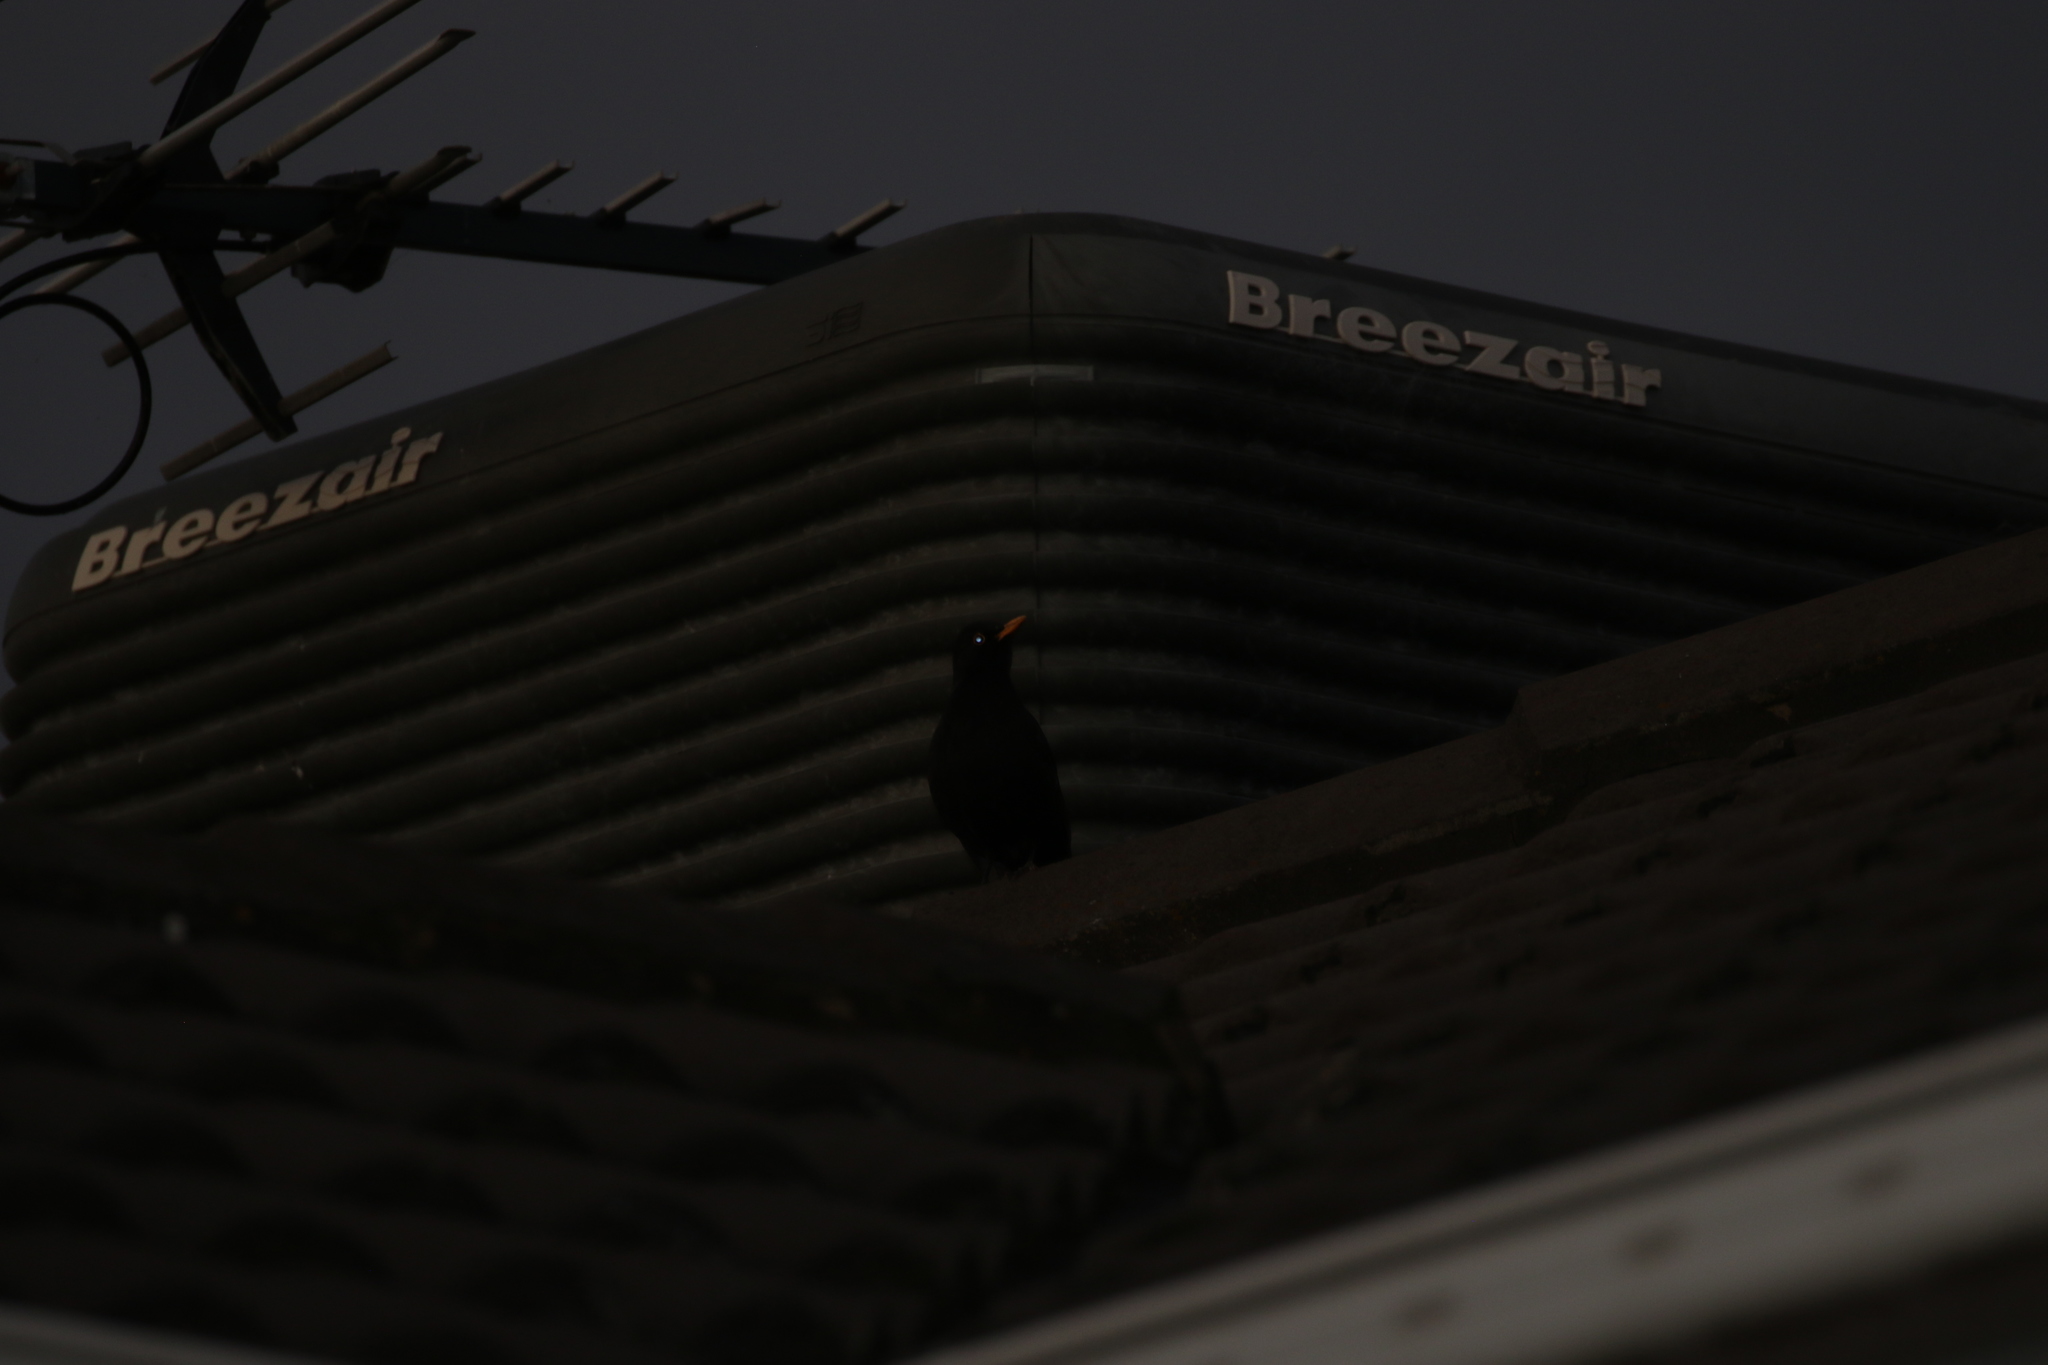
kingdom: Animalia
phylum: Chordata
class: Aves
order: Passeriformes
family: Turdidae
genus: Turdus
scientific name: Turdus merula
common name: Common blackbird
